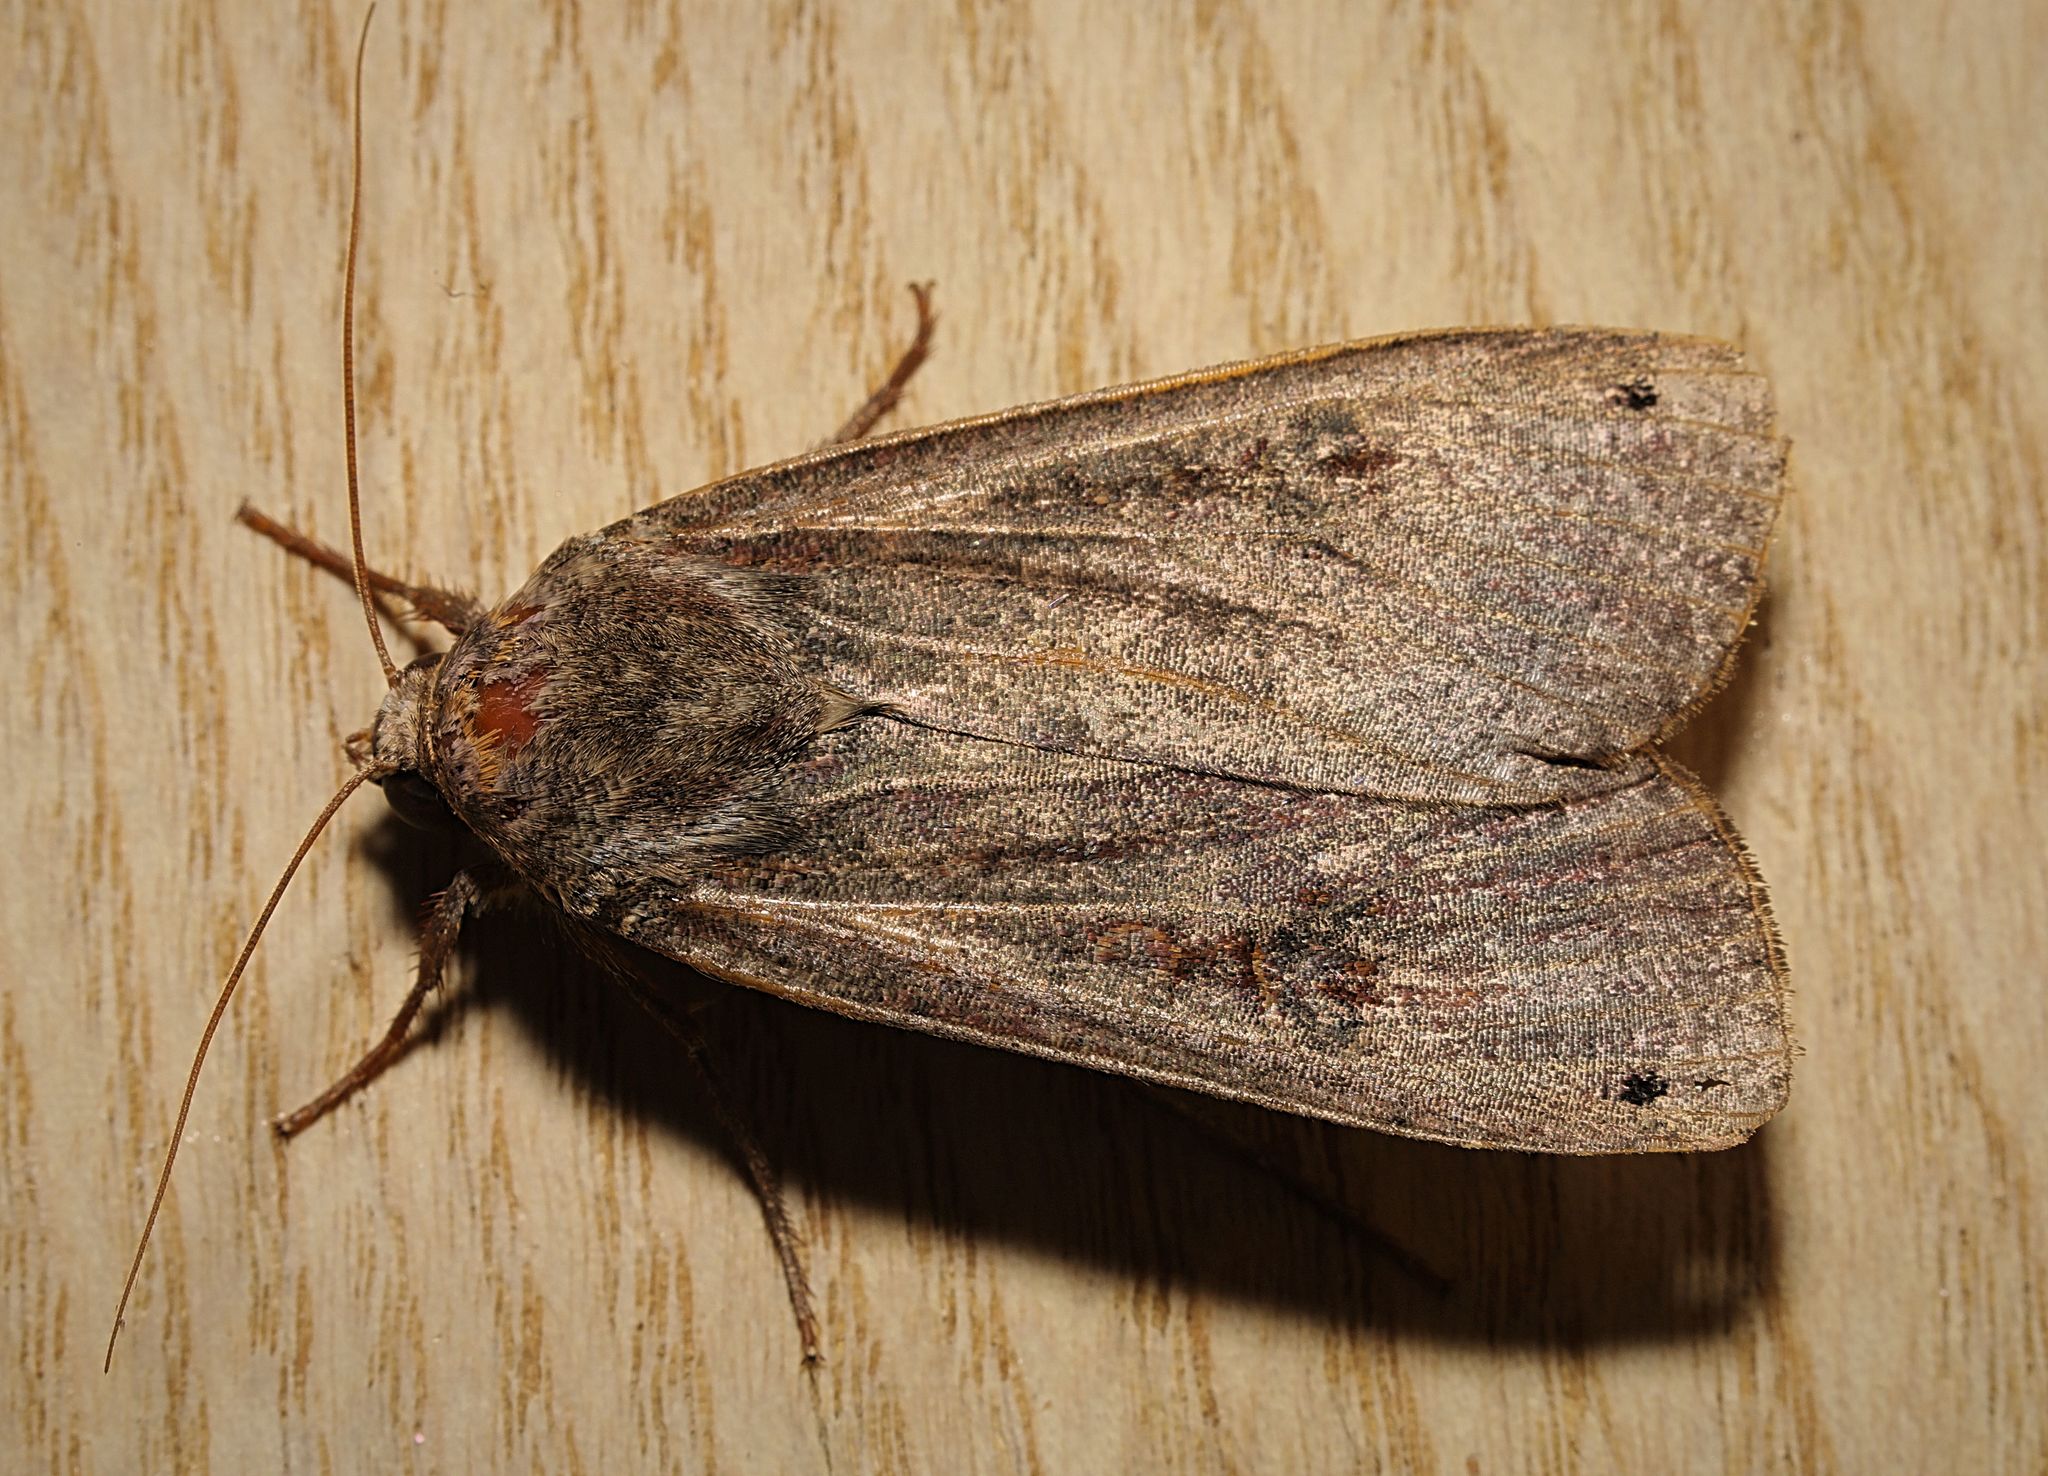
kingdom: Animalia
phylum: Arthropoda
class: Insecta
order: Lepidoptera
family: Noctuidae
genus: Noctua
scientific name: Noctua pronuba
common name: Large yellow underwing
